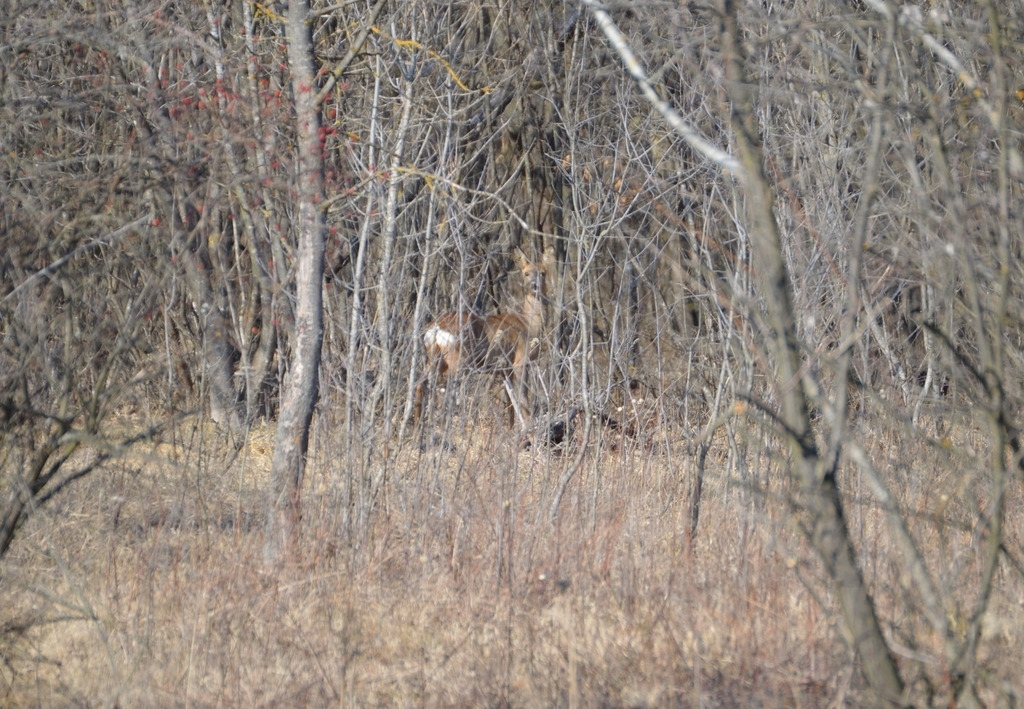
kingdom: Animalia
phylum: Chordata
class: Mammalia
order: Artiodactyla
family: Cervidae
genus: Capreolus
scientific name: Capreolus capreolus
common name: Western roe deer
